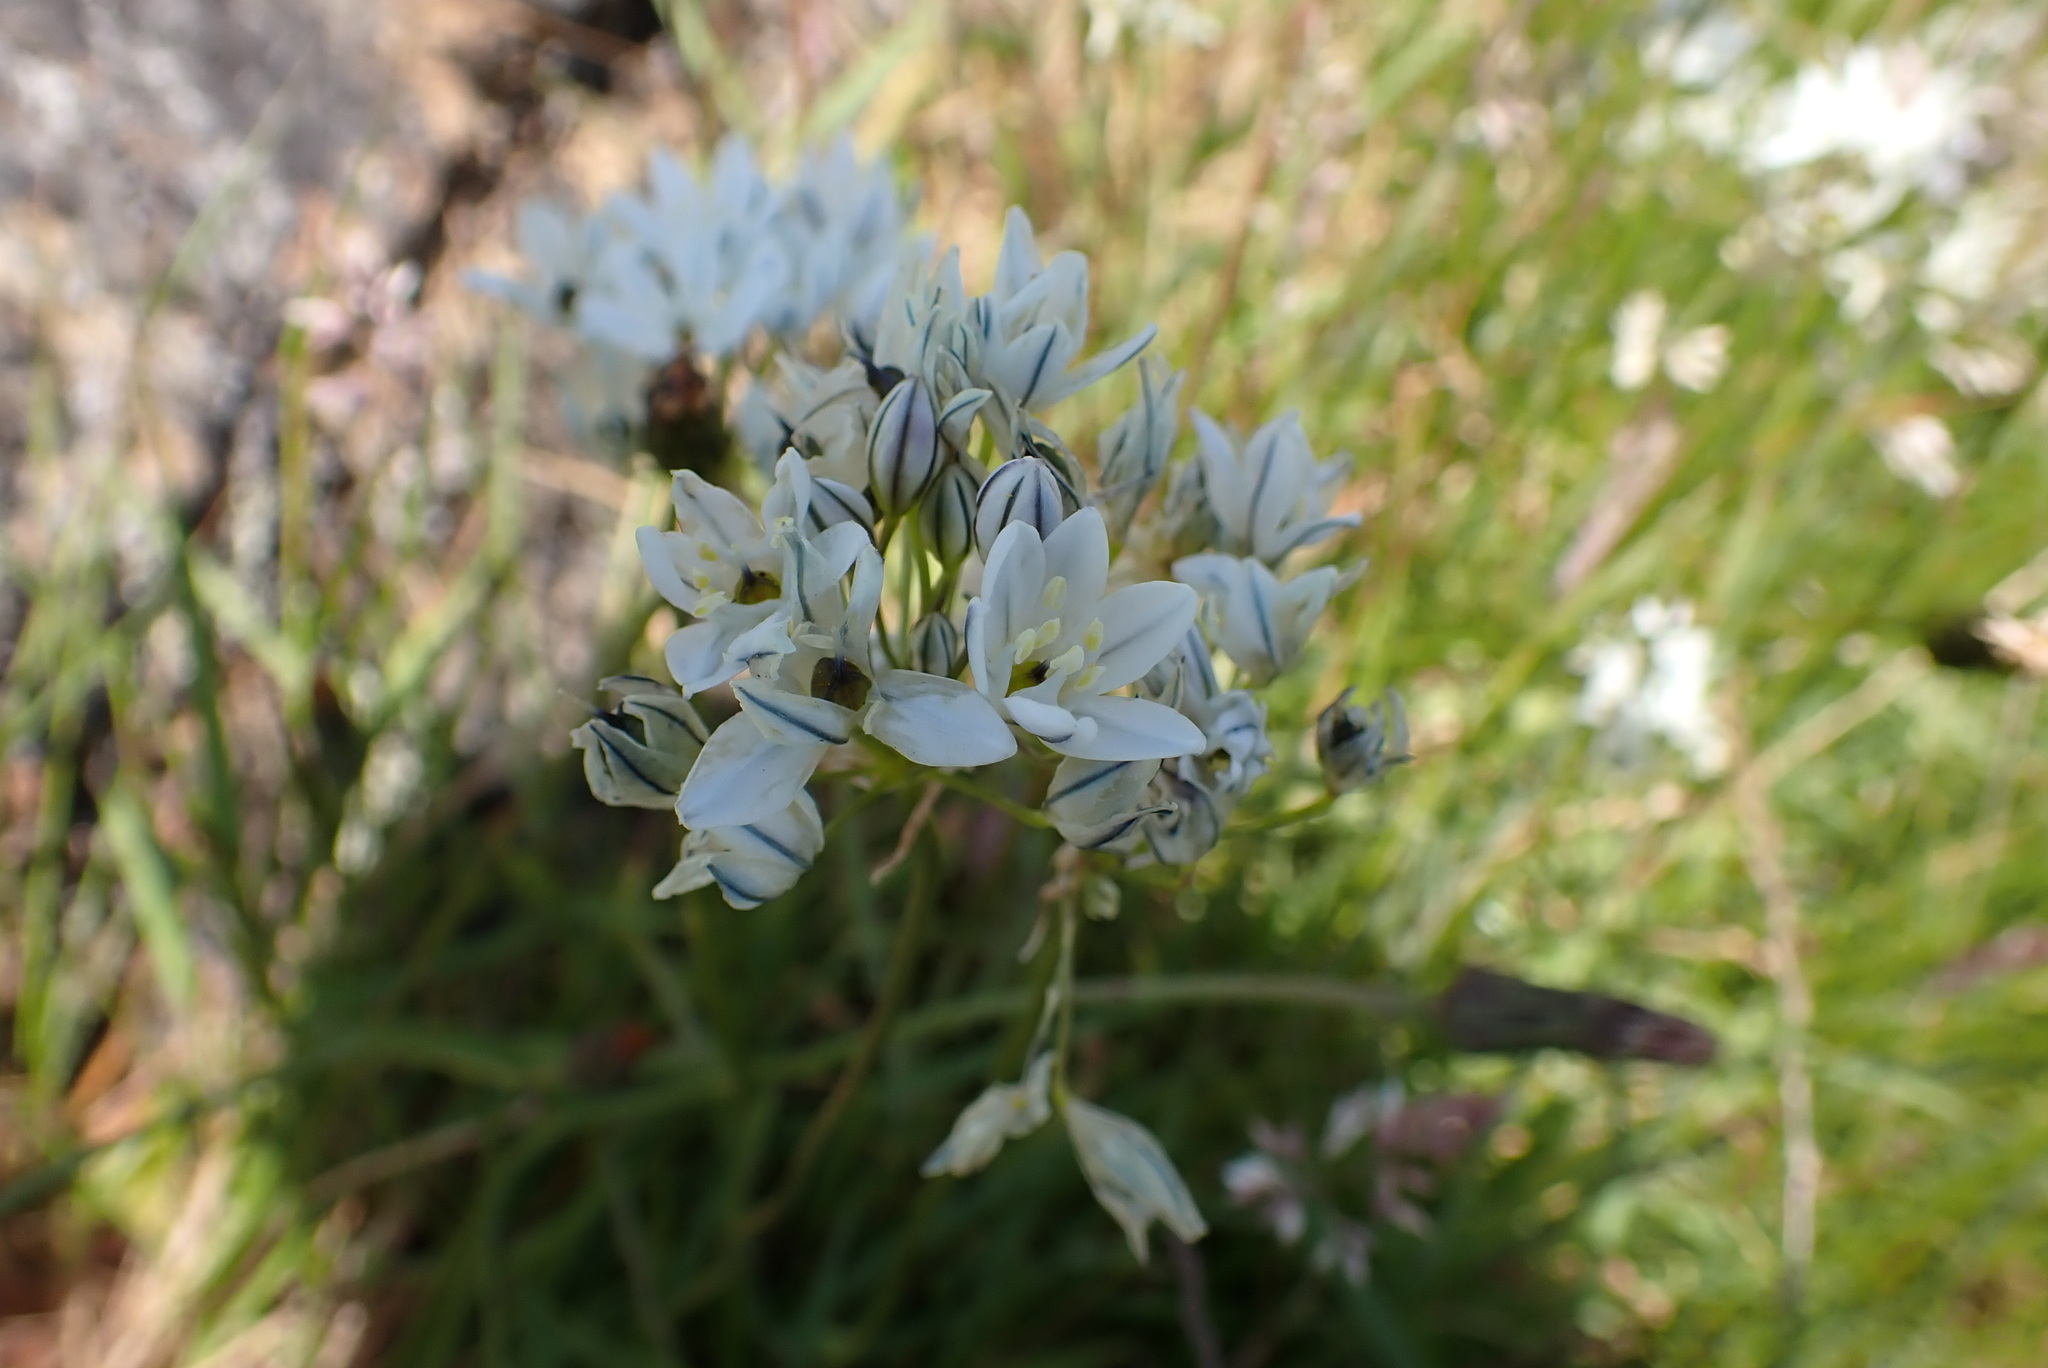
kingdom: Plantae
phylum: Tracheophyta
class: Liliopsida
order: Asparagales
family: Asparagaceae
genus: Triteleia
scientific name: Triteleia hyacinthina
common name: White brodiaea
